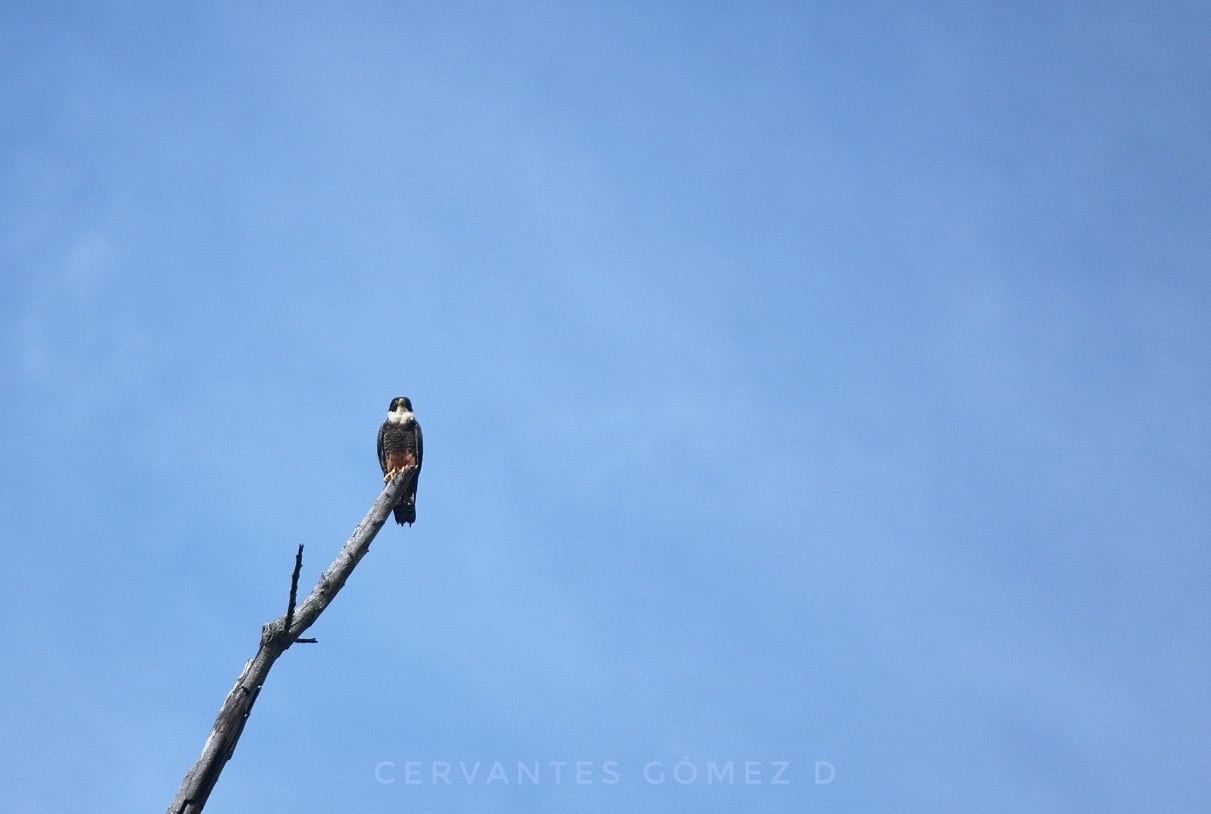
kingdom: Animalia
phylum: Chordata
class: Aves
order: Falconiformes
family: Falconidae
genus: Falco
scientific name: Falco rufigularis
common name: Bat falcon
